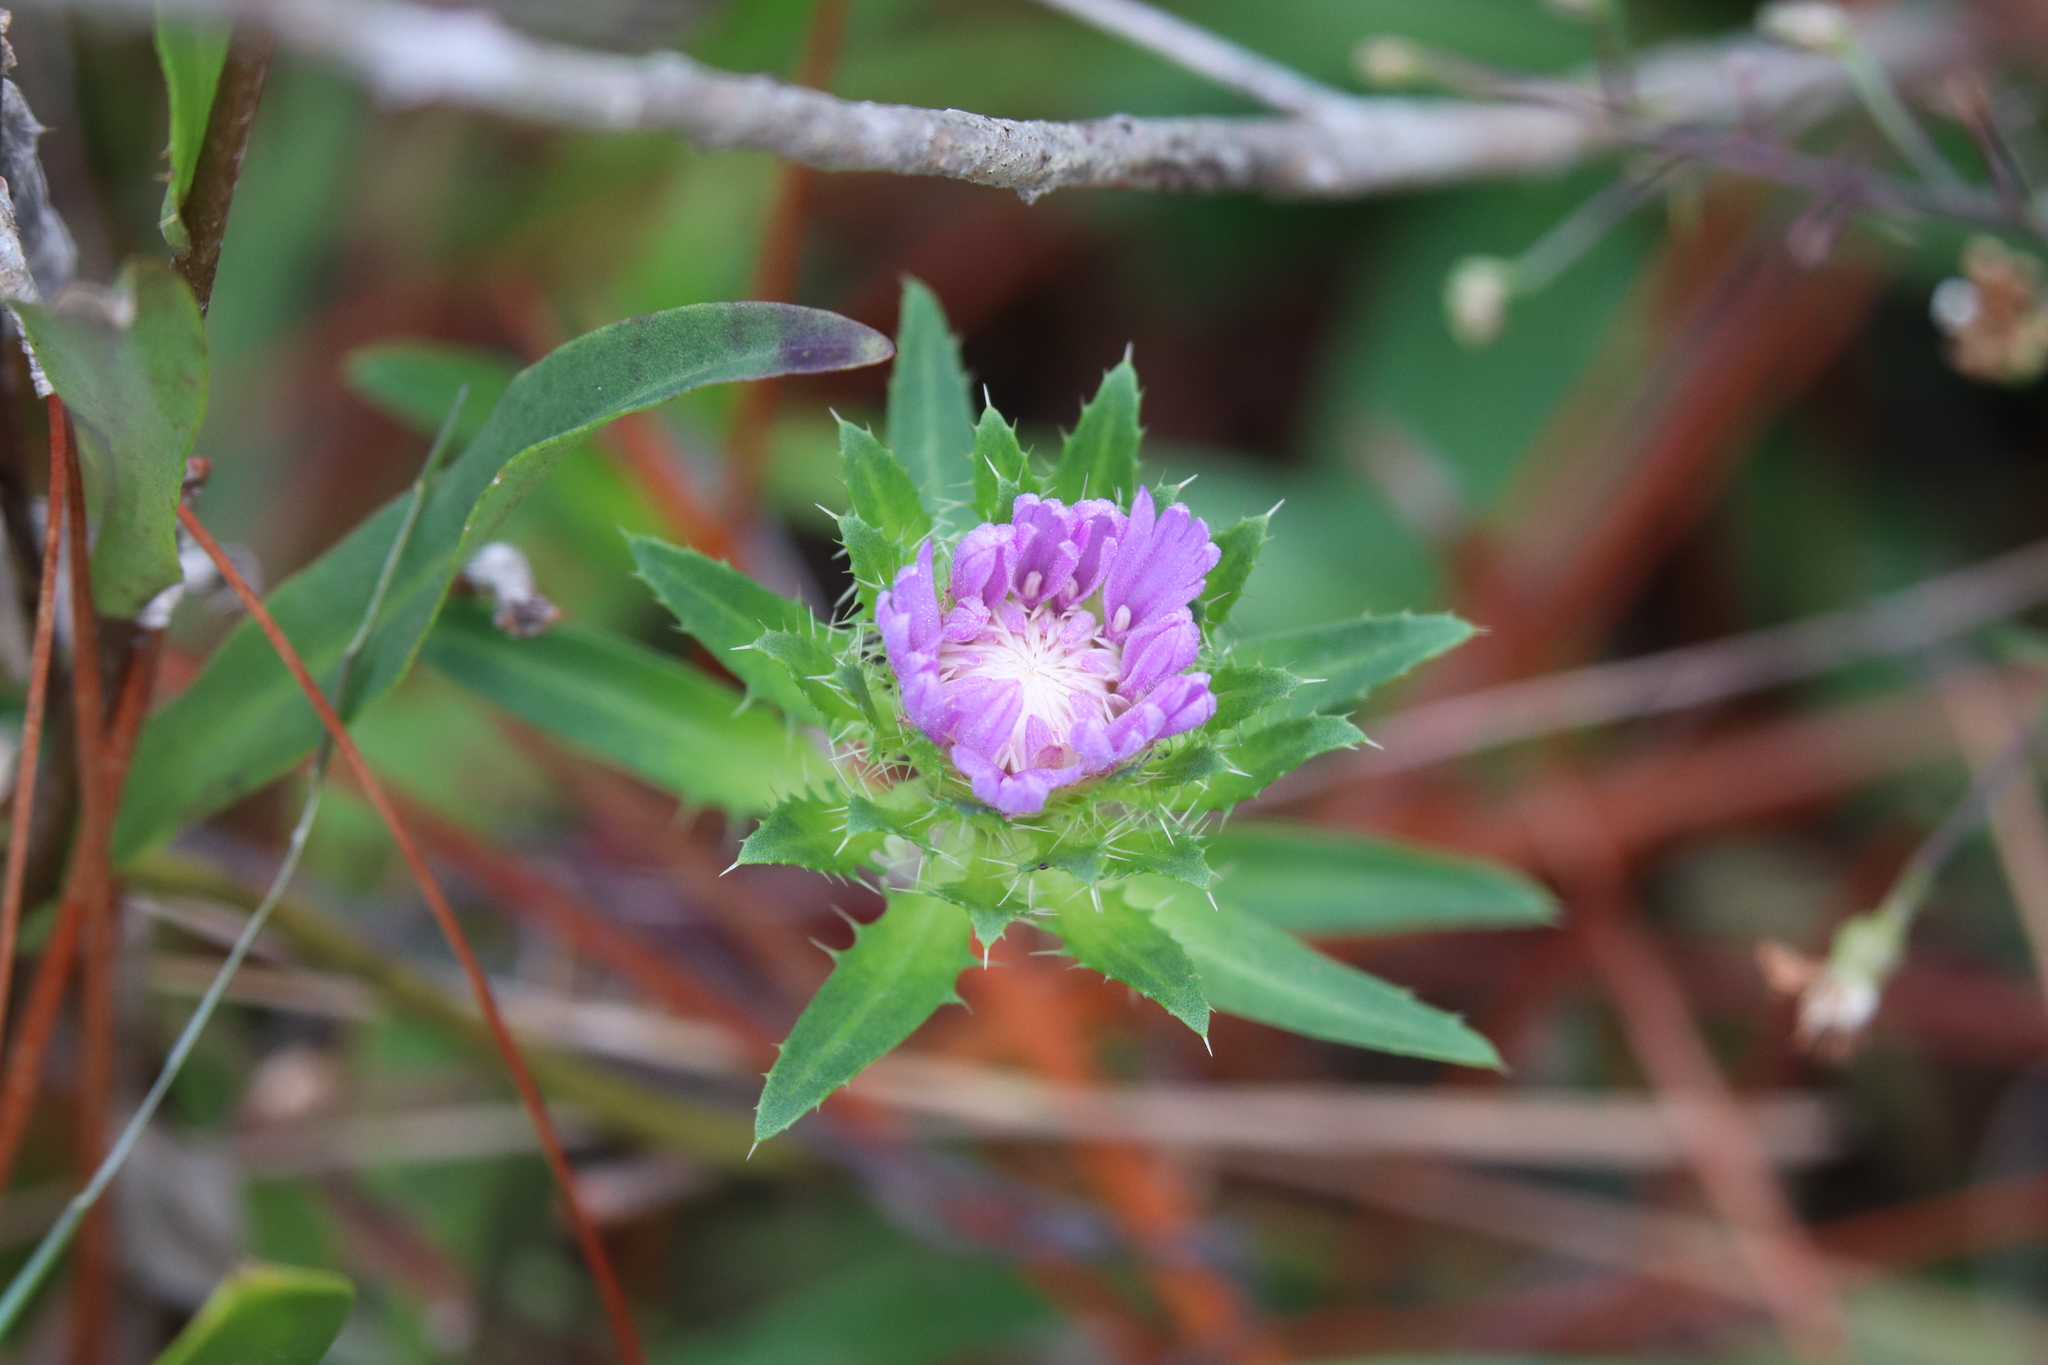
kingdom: Plantae
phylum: Tracheophyta
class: Magnoliopsida
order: Asterales
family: Asteraceae
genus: Stokesia
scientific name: Stokesia laevis
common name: Stokes'-aster
